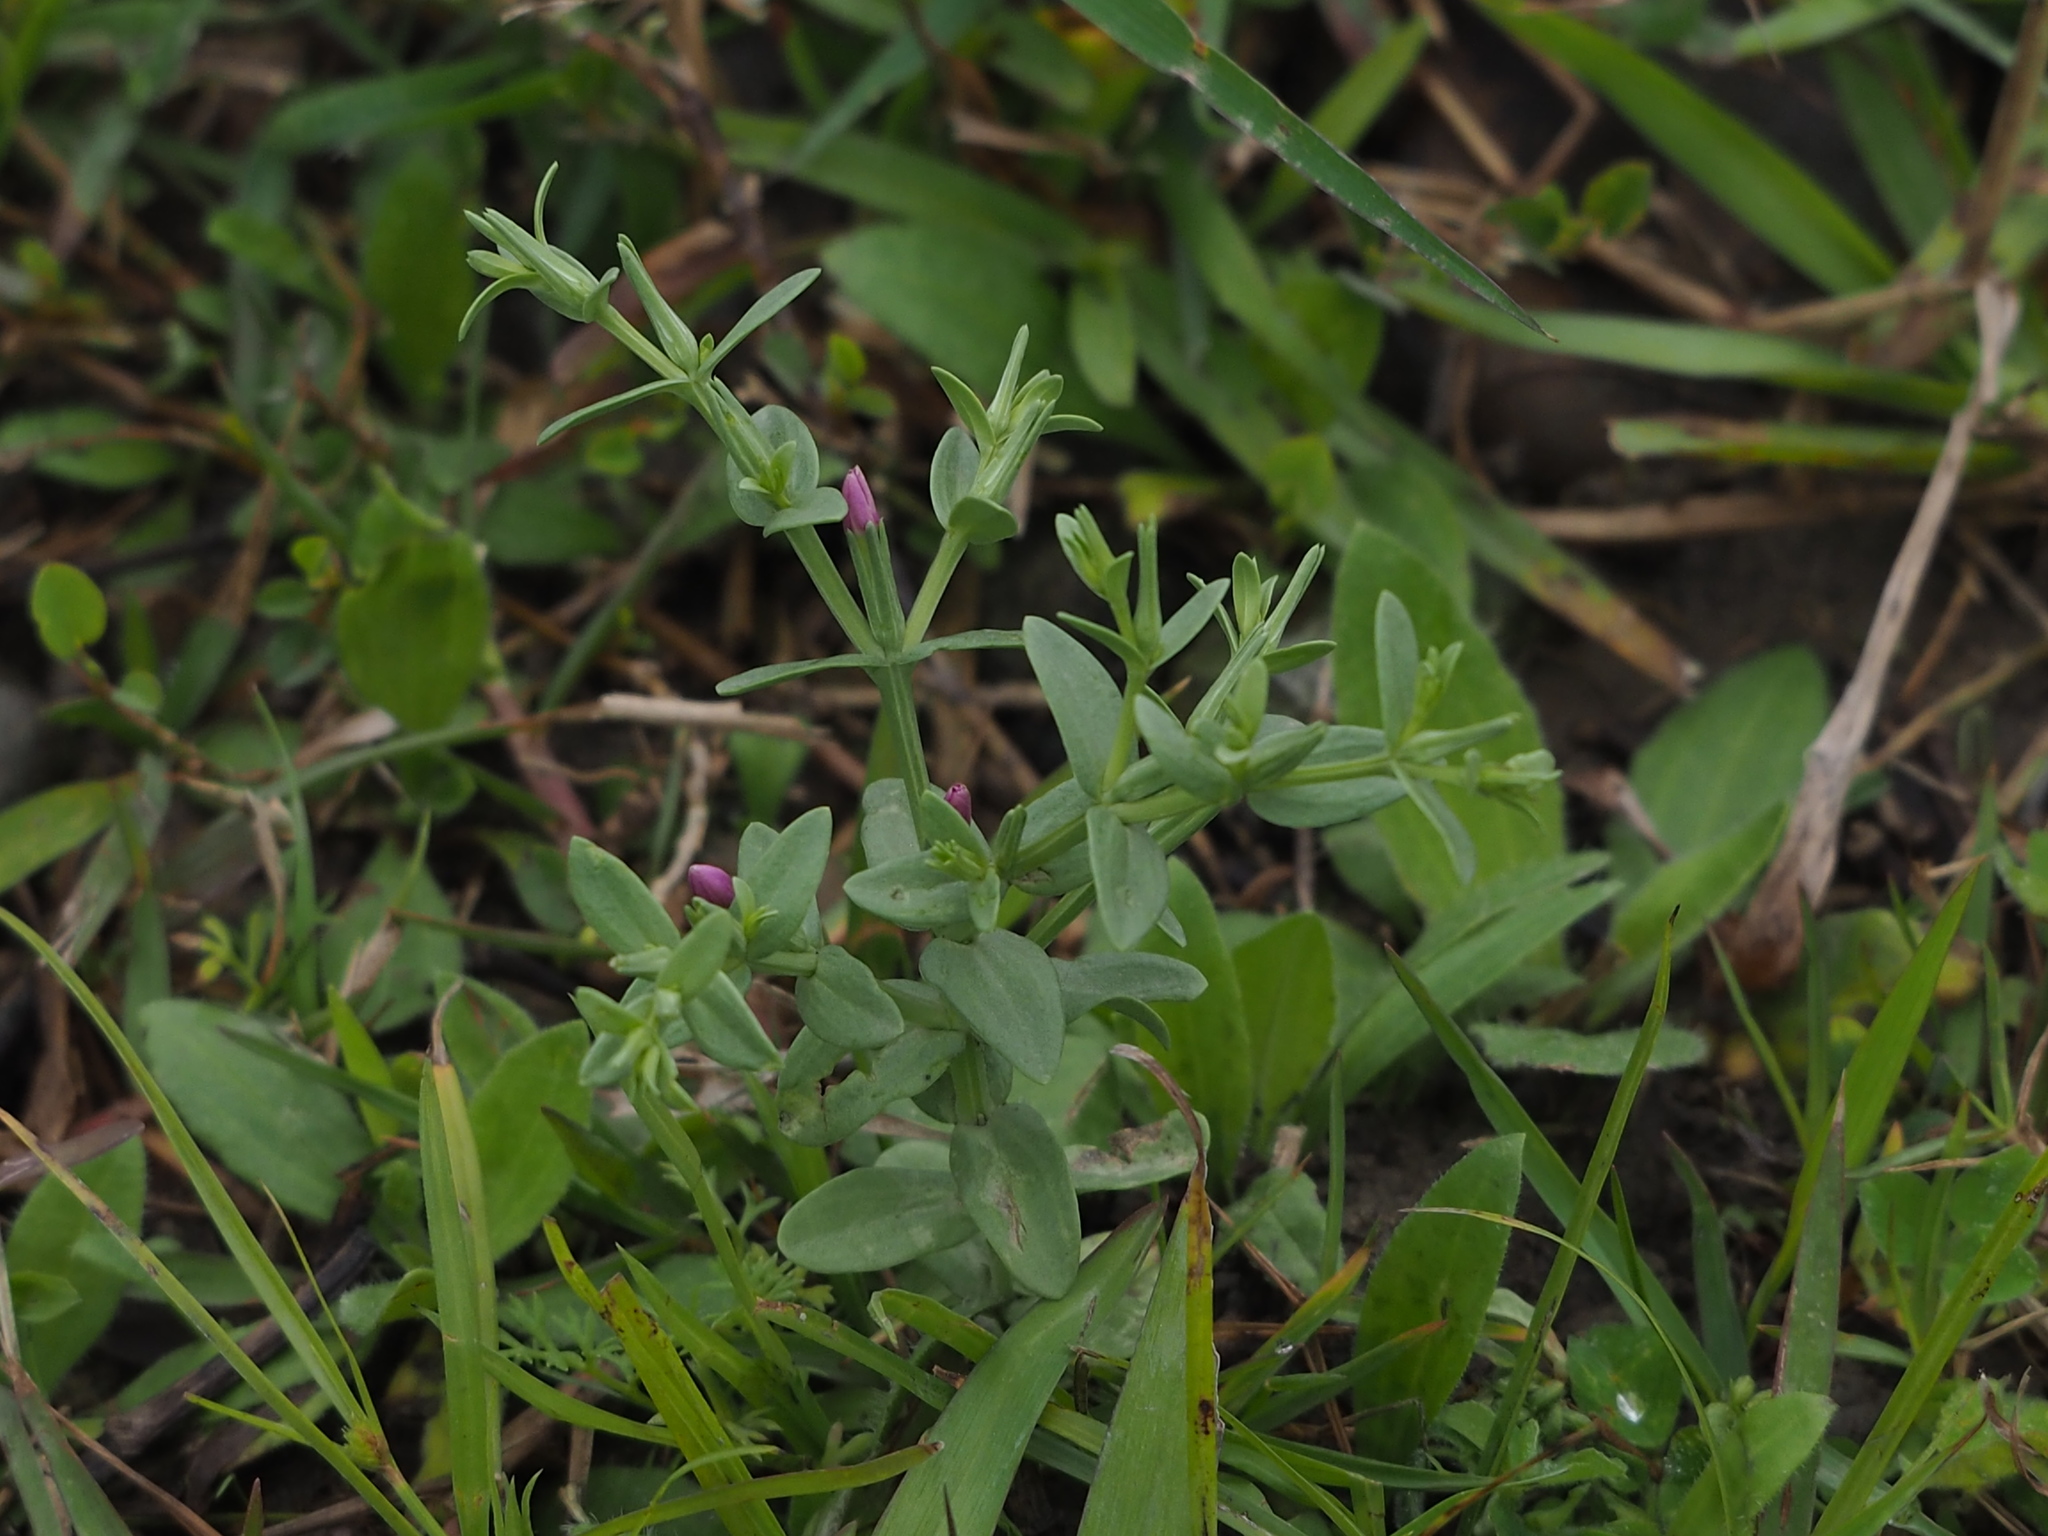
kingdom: Plantae
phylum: Tracheophyta
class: Magnoliopsida
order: Gentianales
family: Gentianaceae
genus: Schenkia
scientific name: Schenkia japonica
